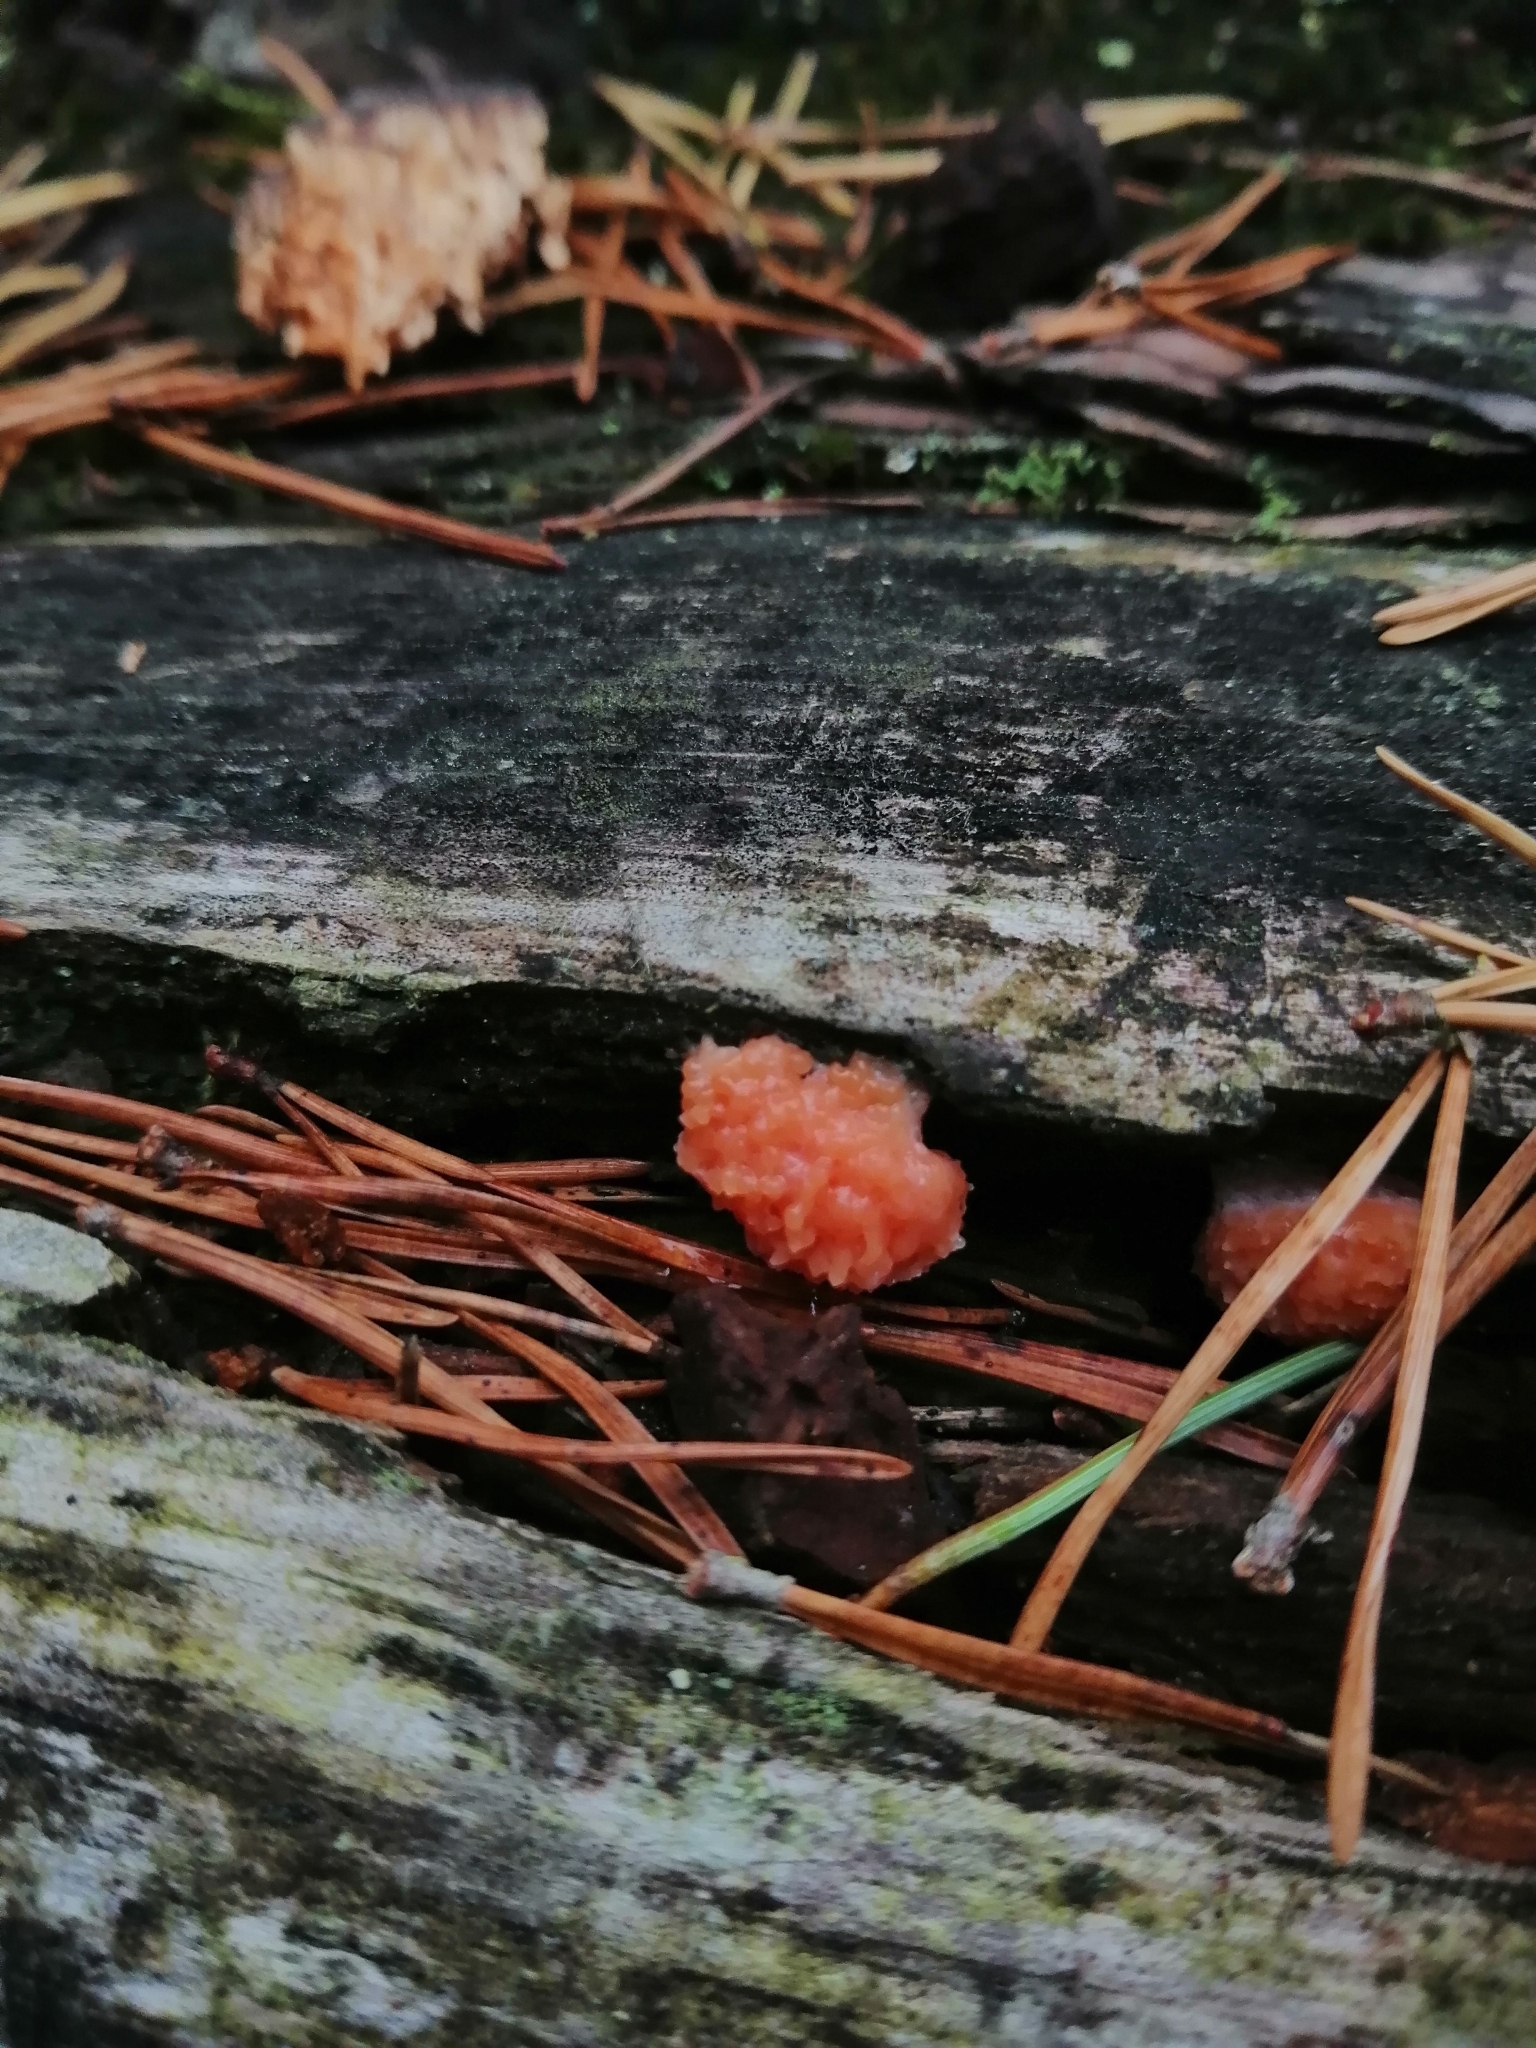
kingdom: Protozoa
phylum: Mycetozoa
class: Myxomycetes
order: Cribrariales
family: Tubiferaceae
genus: Tubifera
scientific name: Tubifera ferruginosa
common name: Red raspberry slime mold
